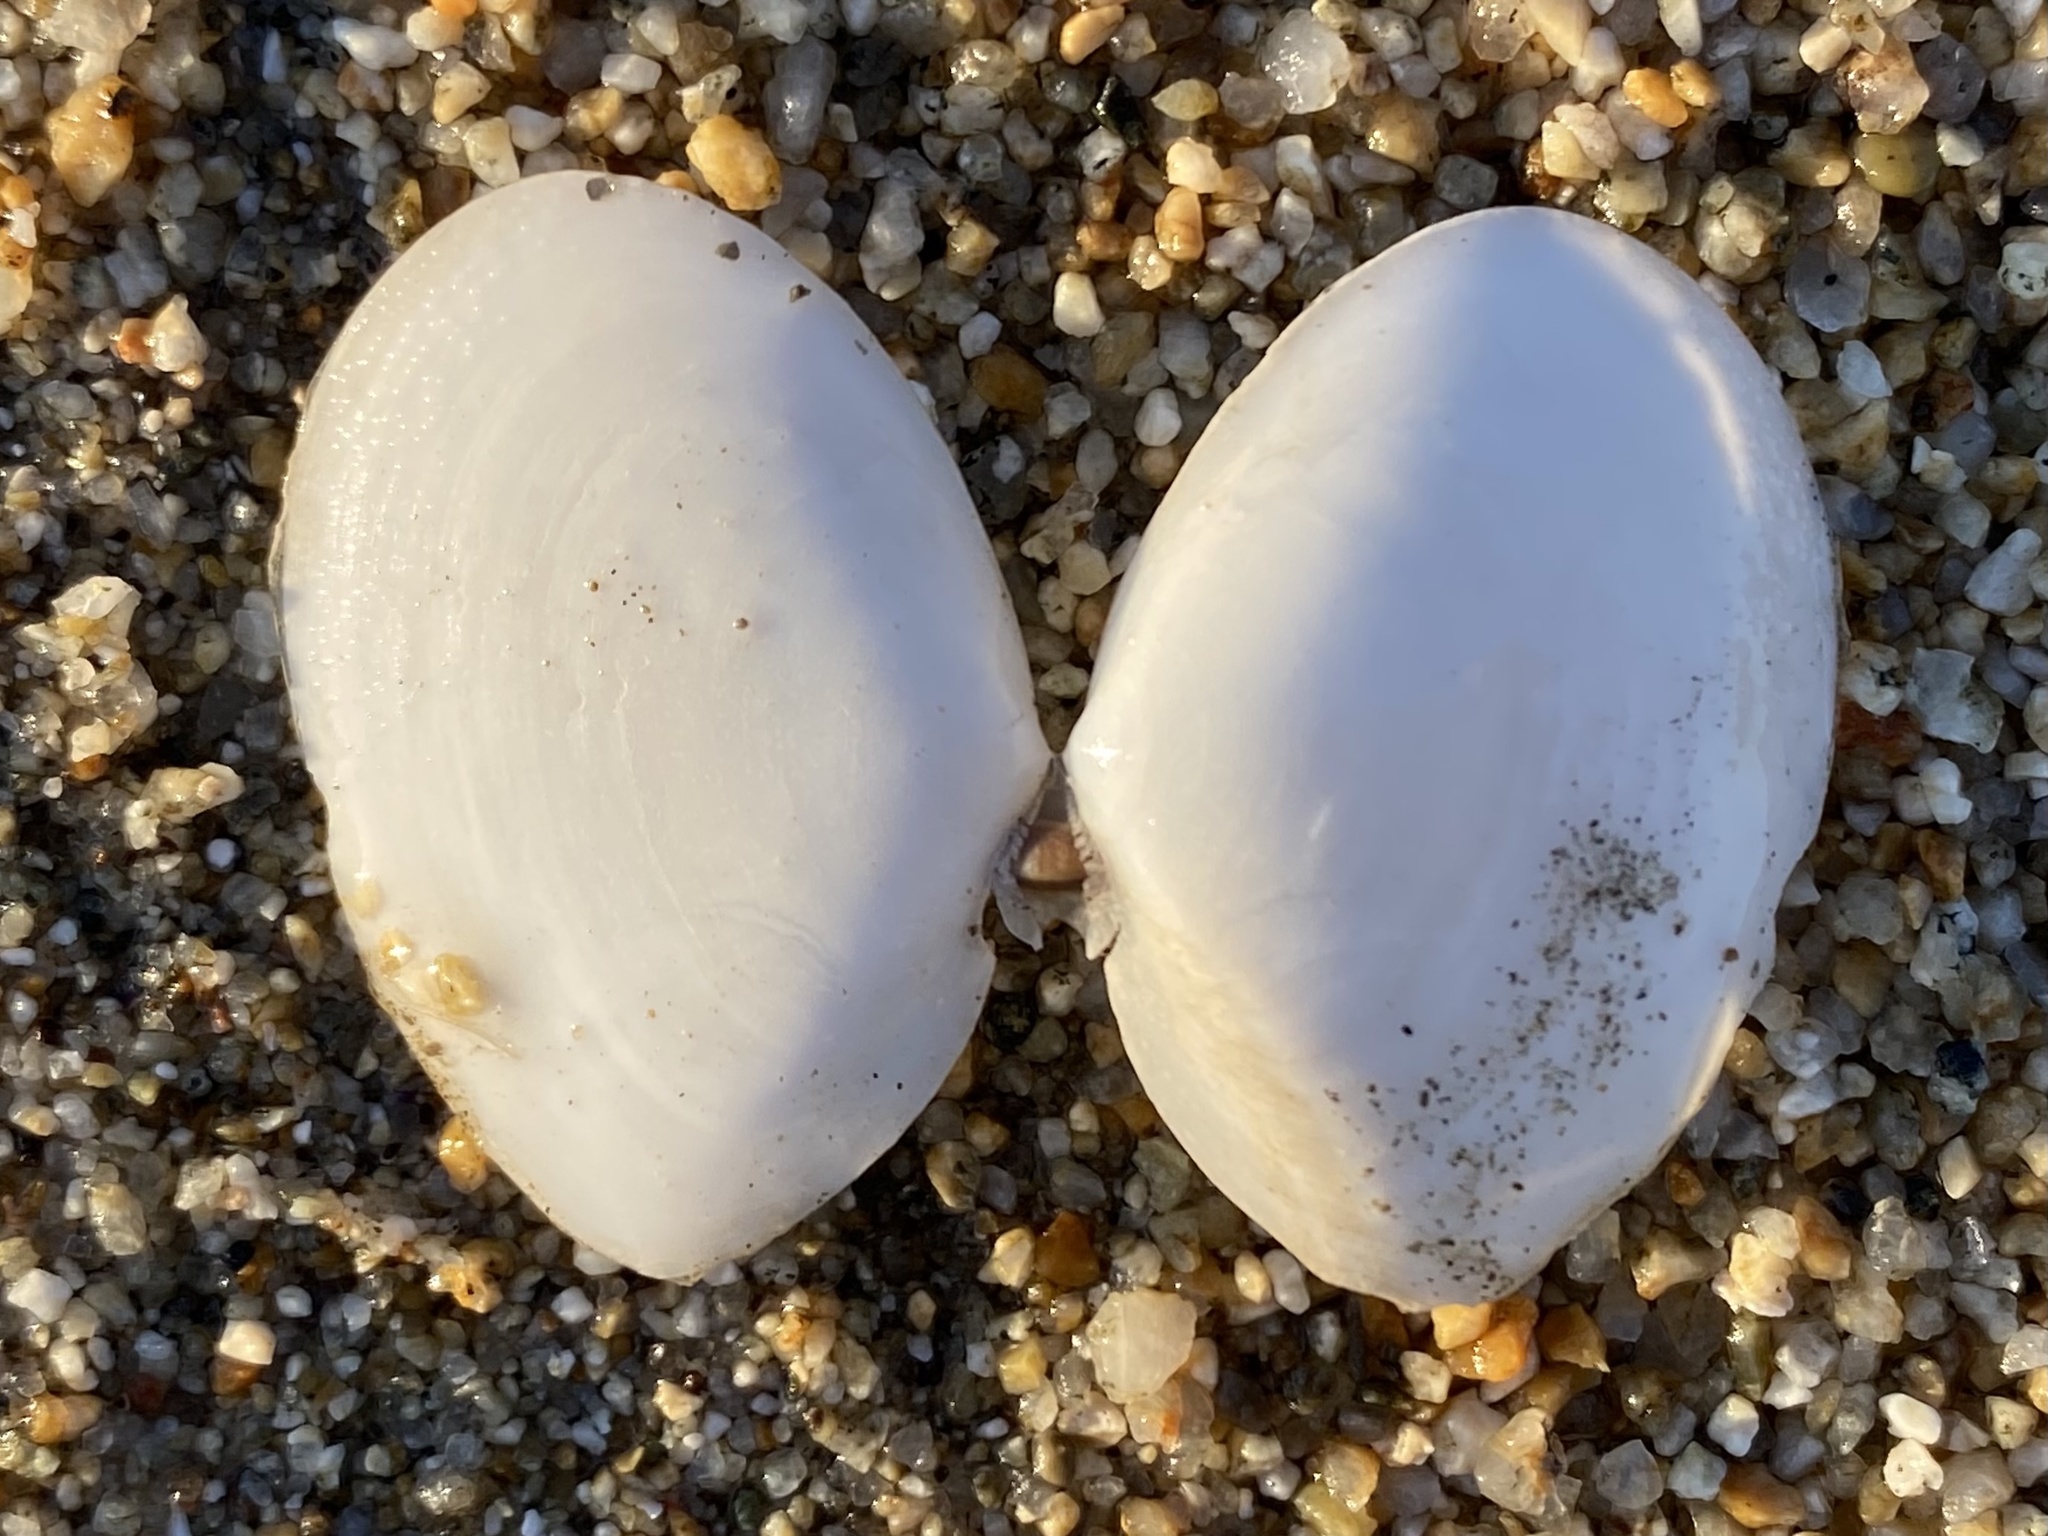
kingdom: Animalia
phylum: Mollusca
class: Bivalvia
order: Cardiida
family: Tellinidae
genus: Rexithaerus
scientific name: Rexithaerus secta
